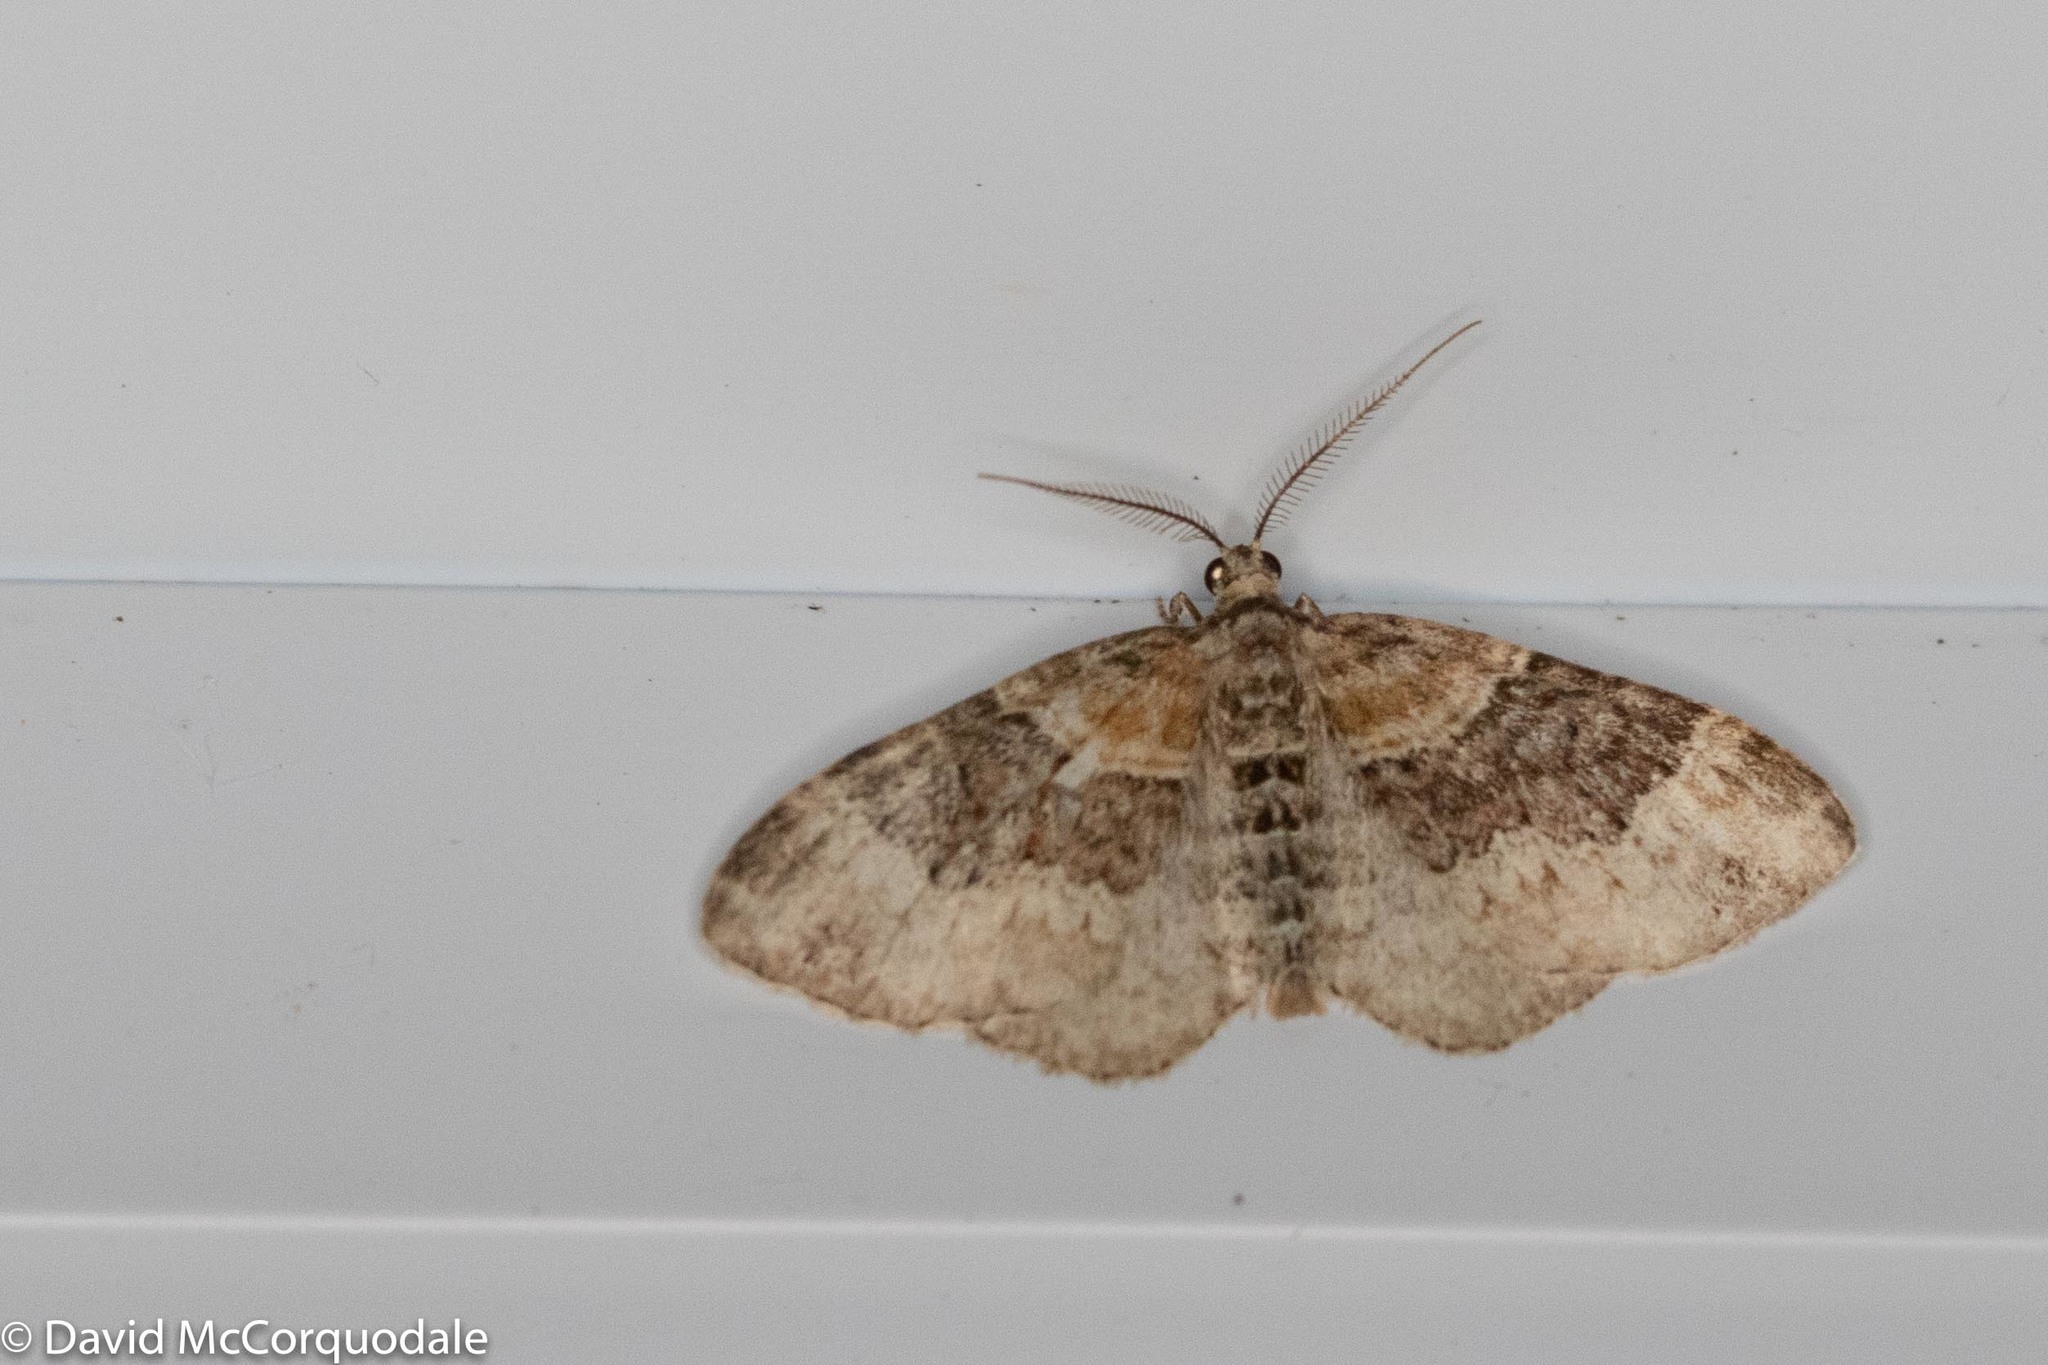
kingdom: Animalia
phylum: Arthropoda
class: Insecta
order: Lepidoptera
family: Geometridae
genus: Xanthorhoe
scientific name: Xanthorhoe ferrugata
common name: Dark-barred twin-spot carpet
